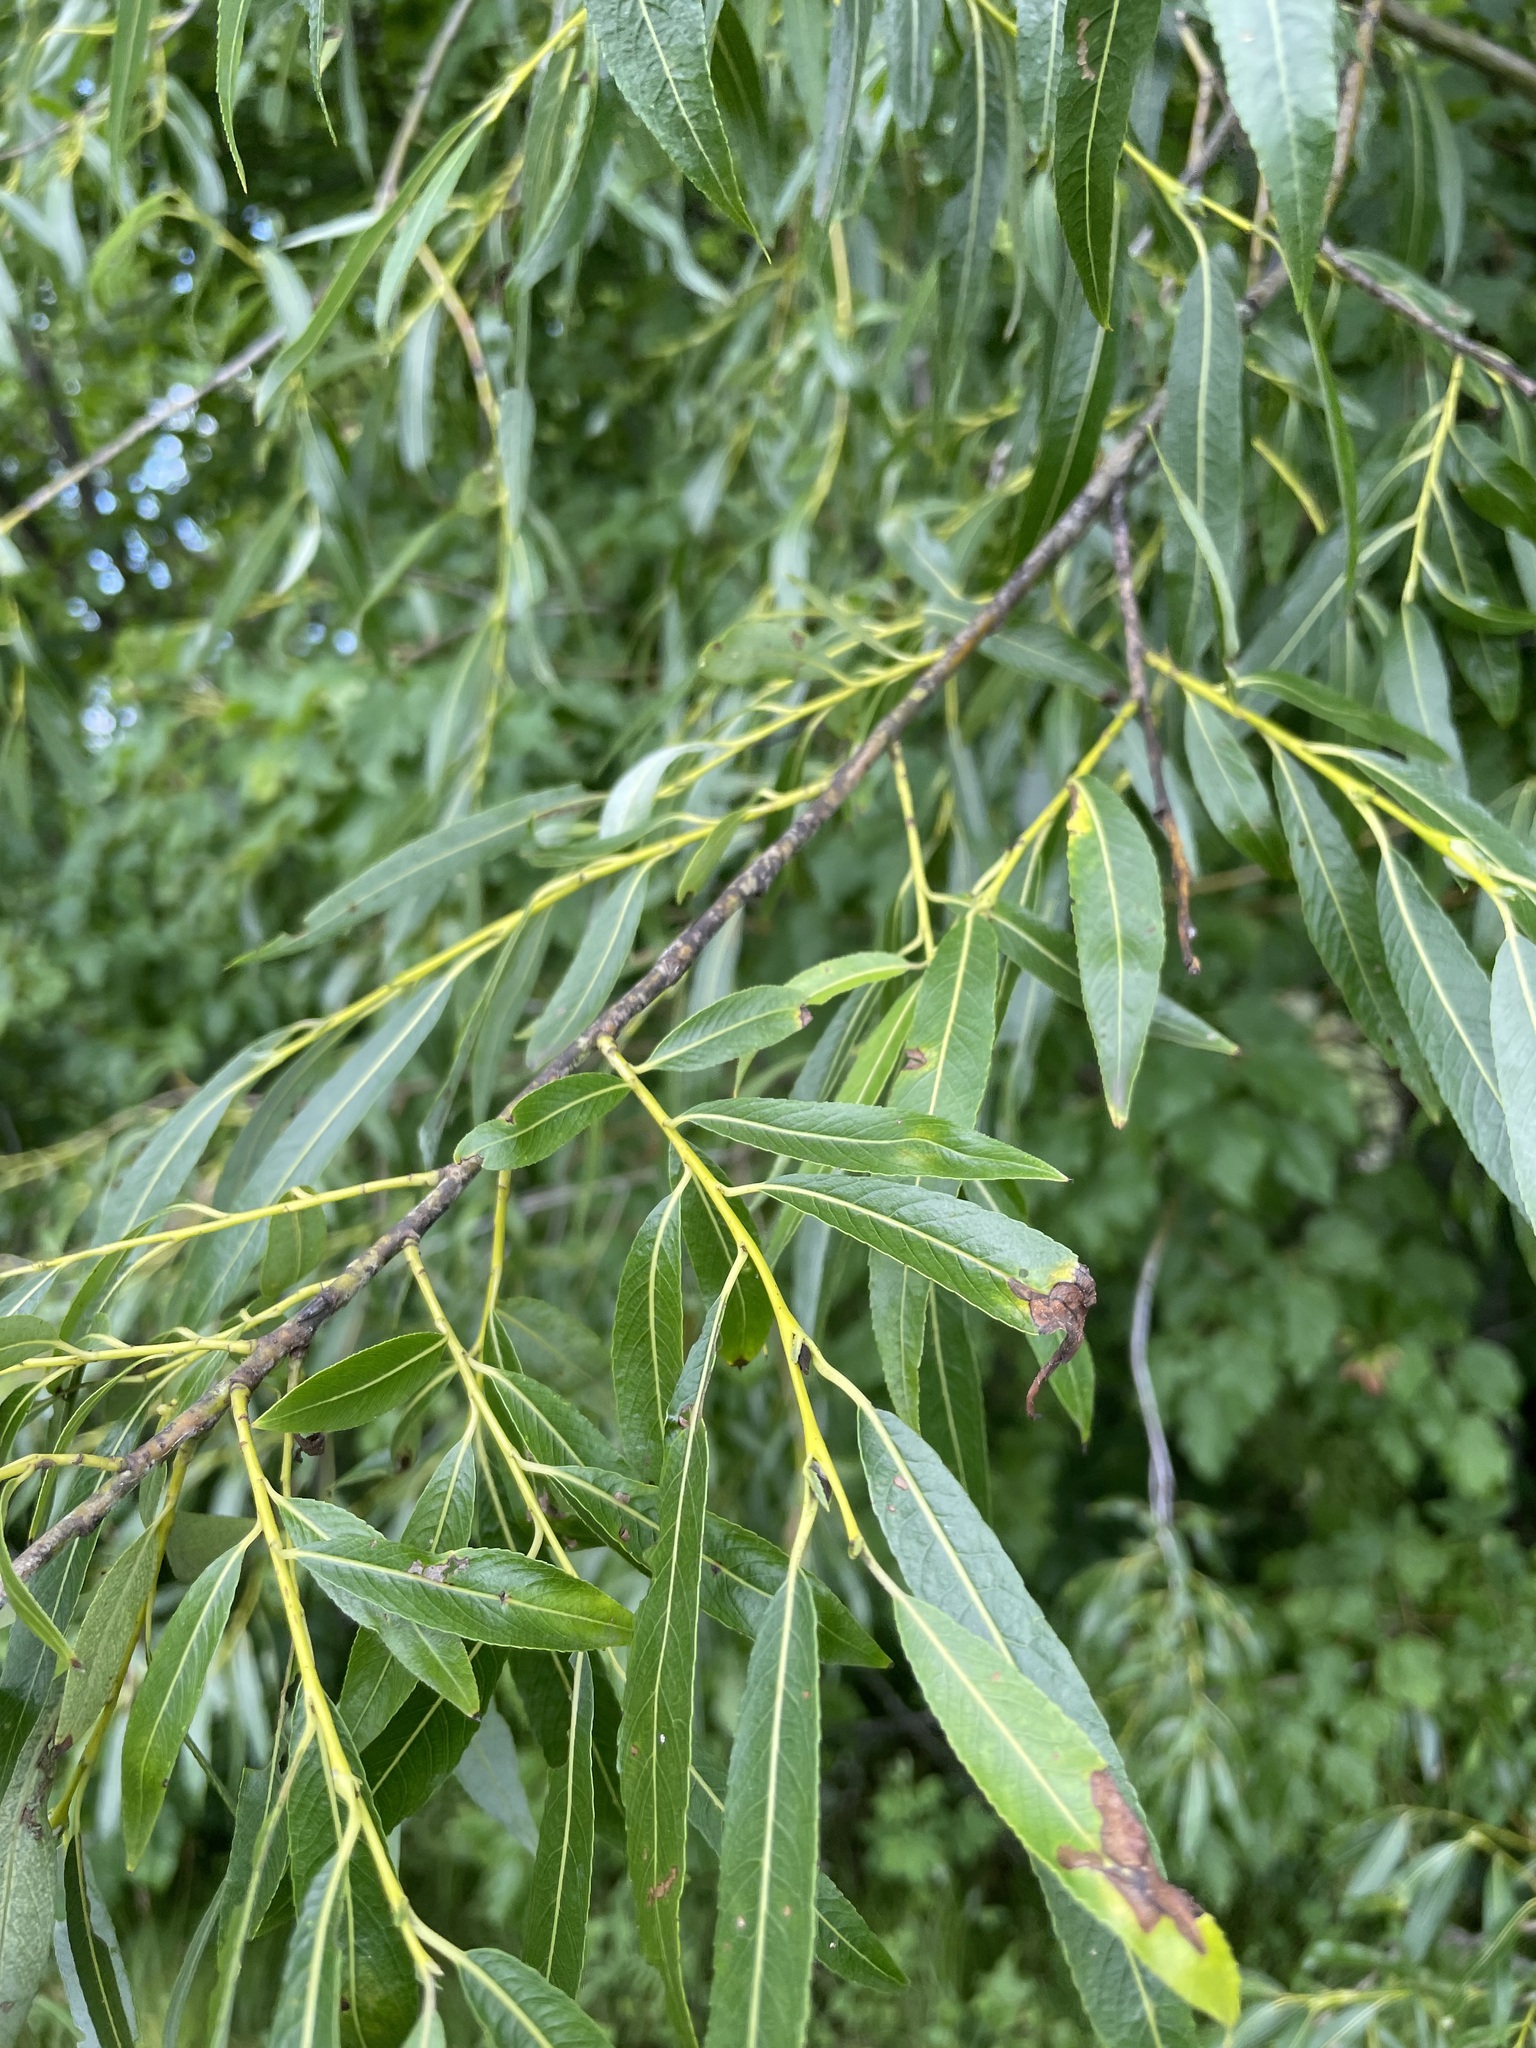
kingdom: Plantae
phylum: Tracheophyta
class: Magnoliopsida
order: Malpighiales
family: Salicaceae
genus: Salix
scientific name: Salix acutifolia
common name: Siberian violet-willow
